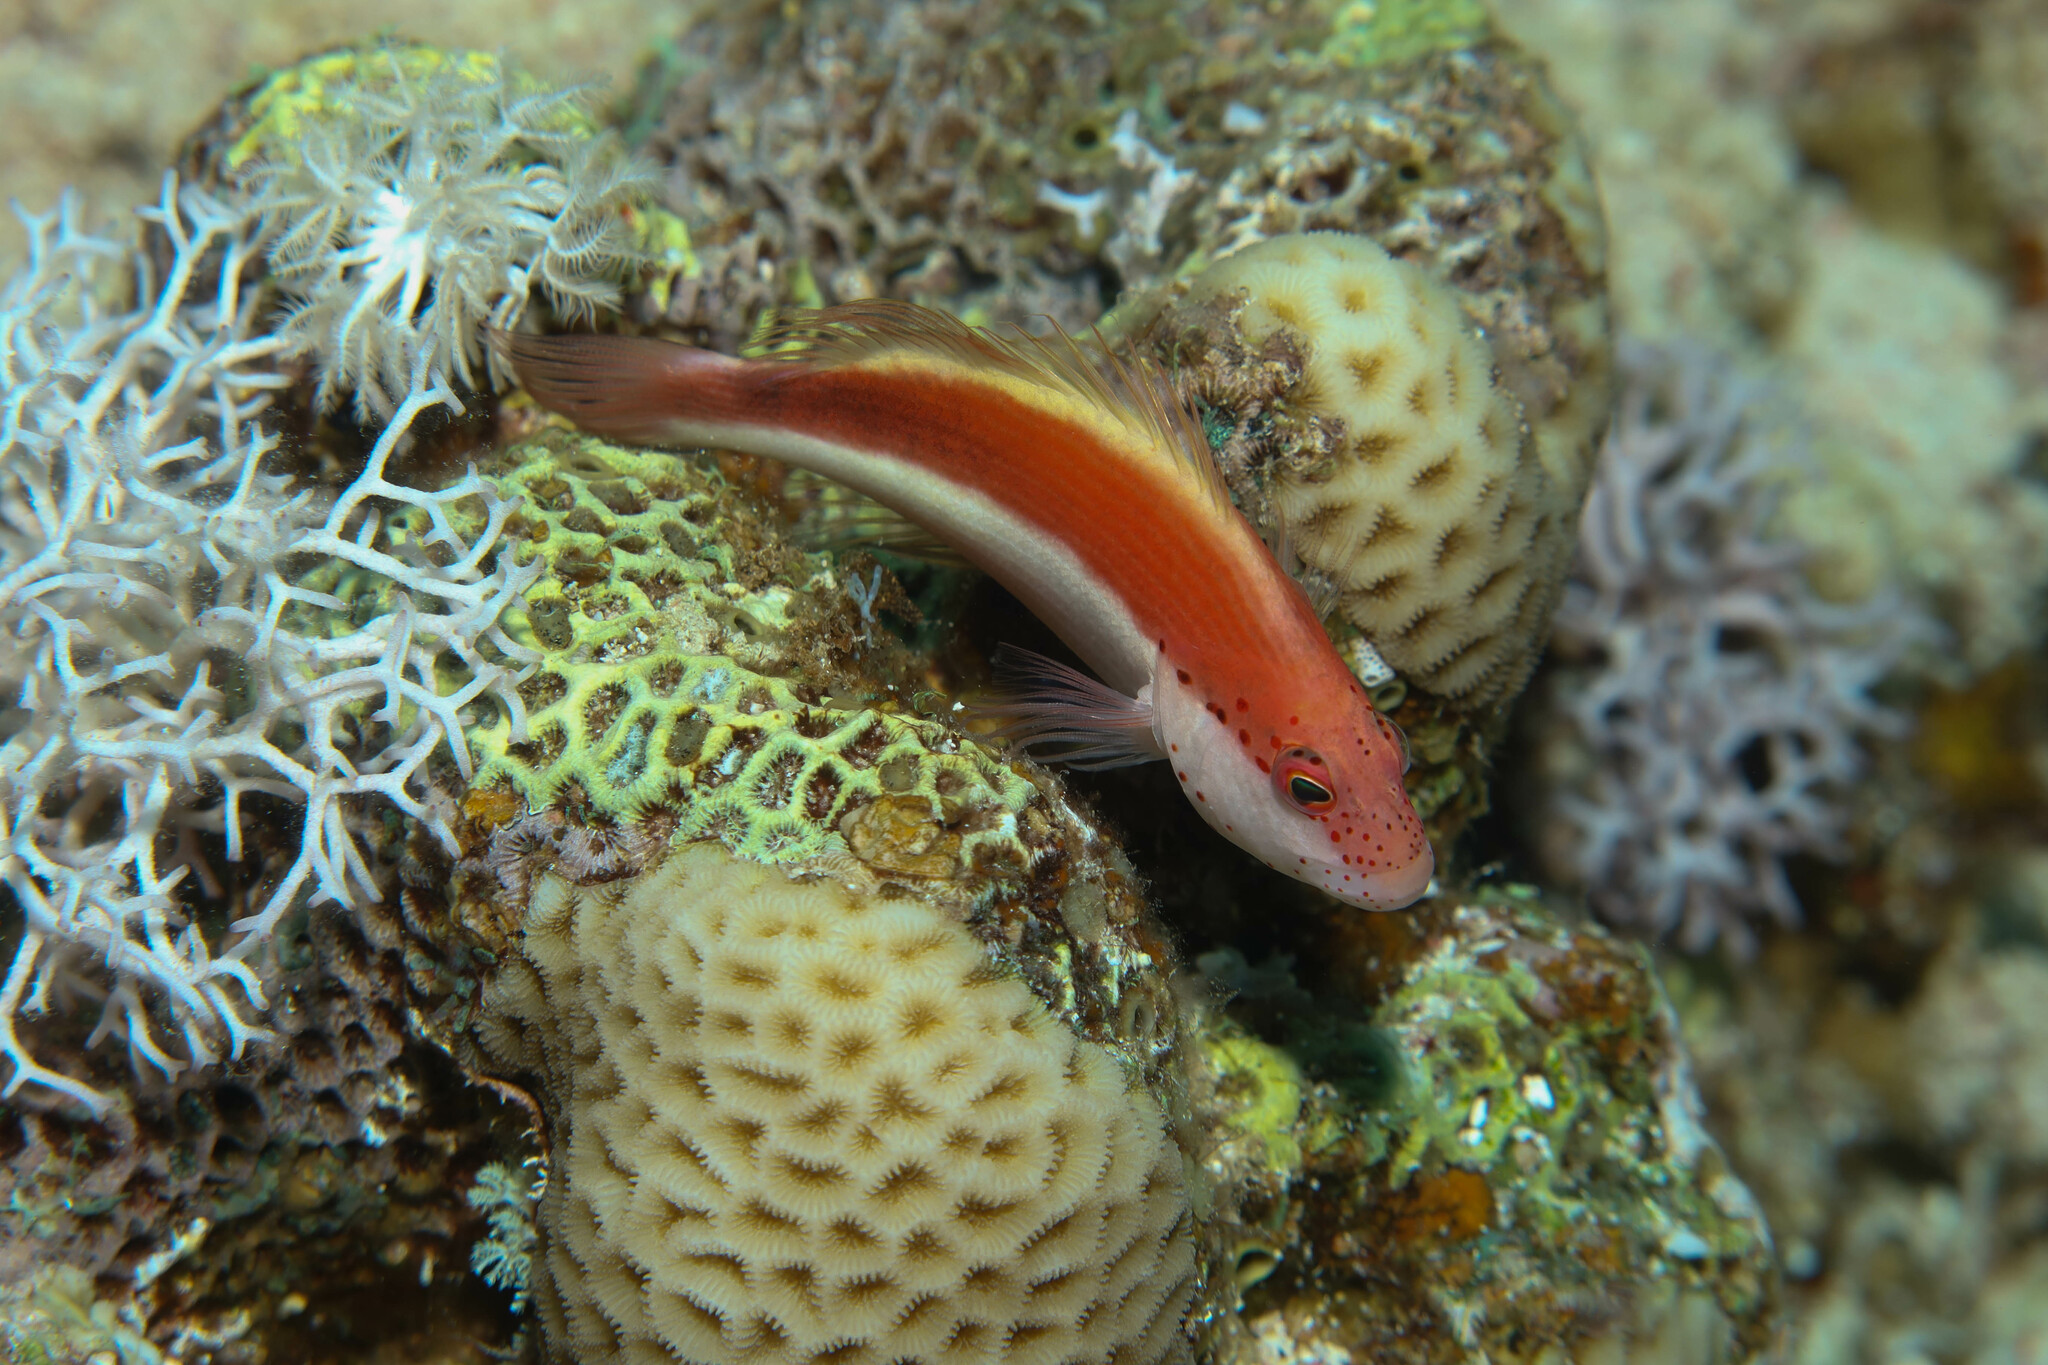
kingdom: Animalia
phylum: Chordata
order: Perciformes
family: Cirrhitidae
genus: Paracirrhites
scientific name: Paracirrhites forsteri
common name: Freckled hawkfish
